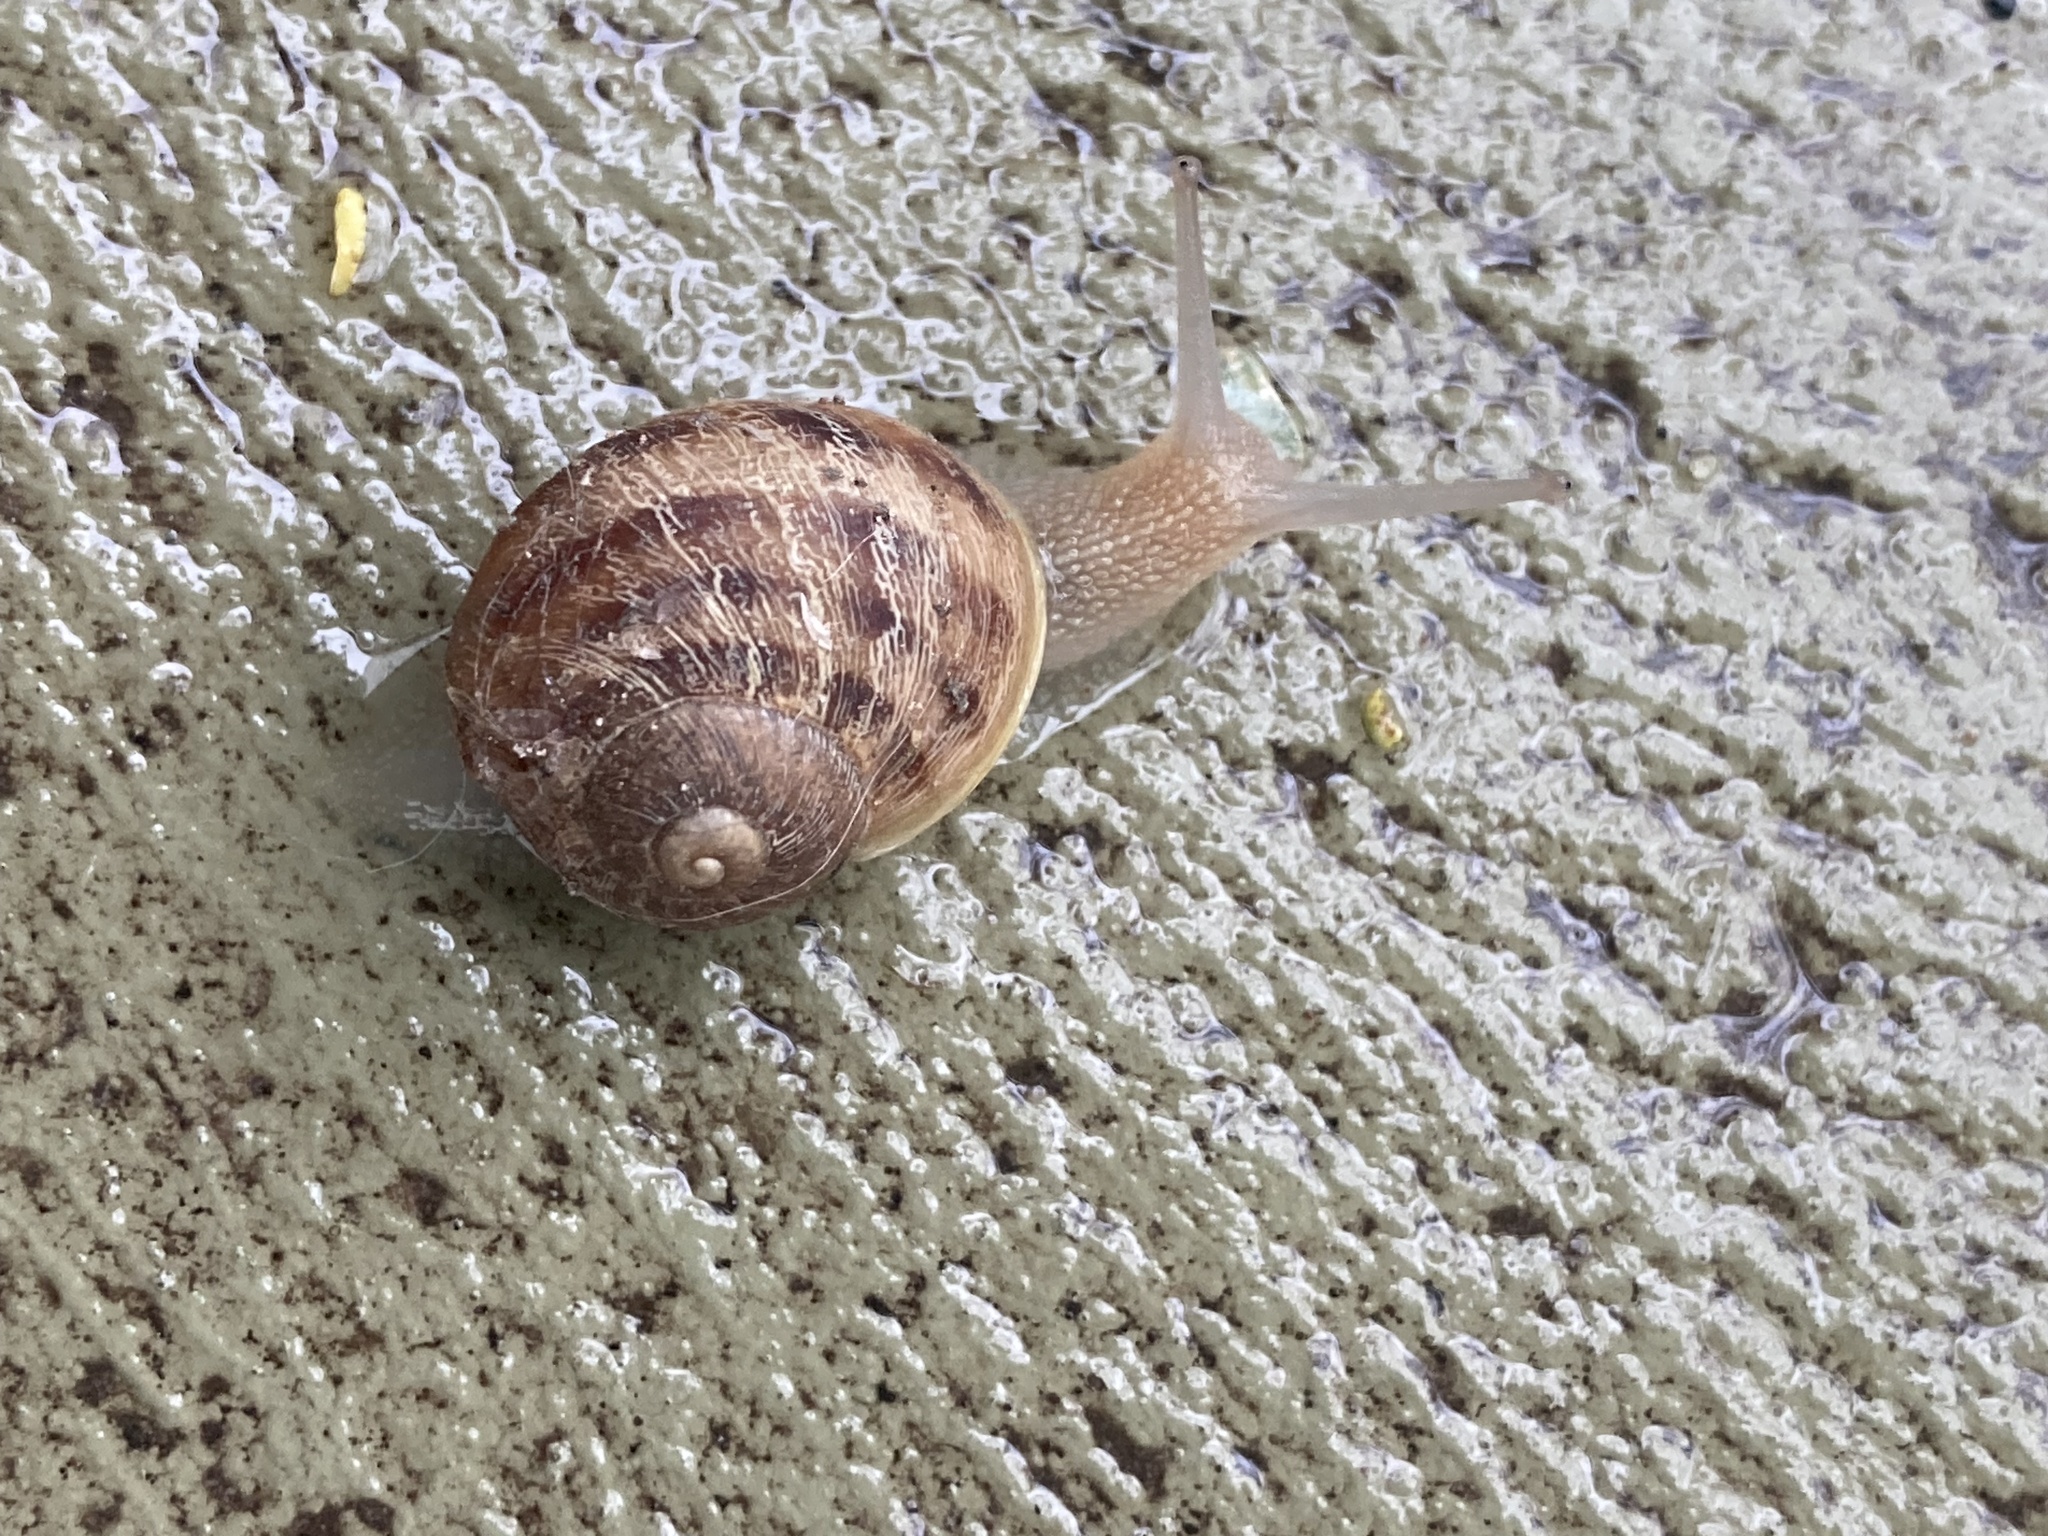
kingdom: Animalia
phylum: Mollusca
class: Gastropoda
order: Stylommatophora
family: Helicidae
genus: Cornu
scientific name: Cornu aspersum
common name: Brown garden snail
